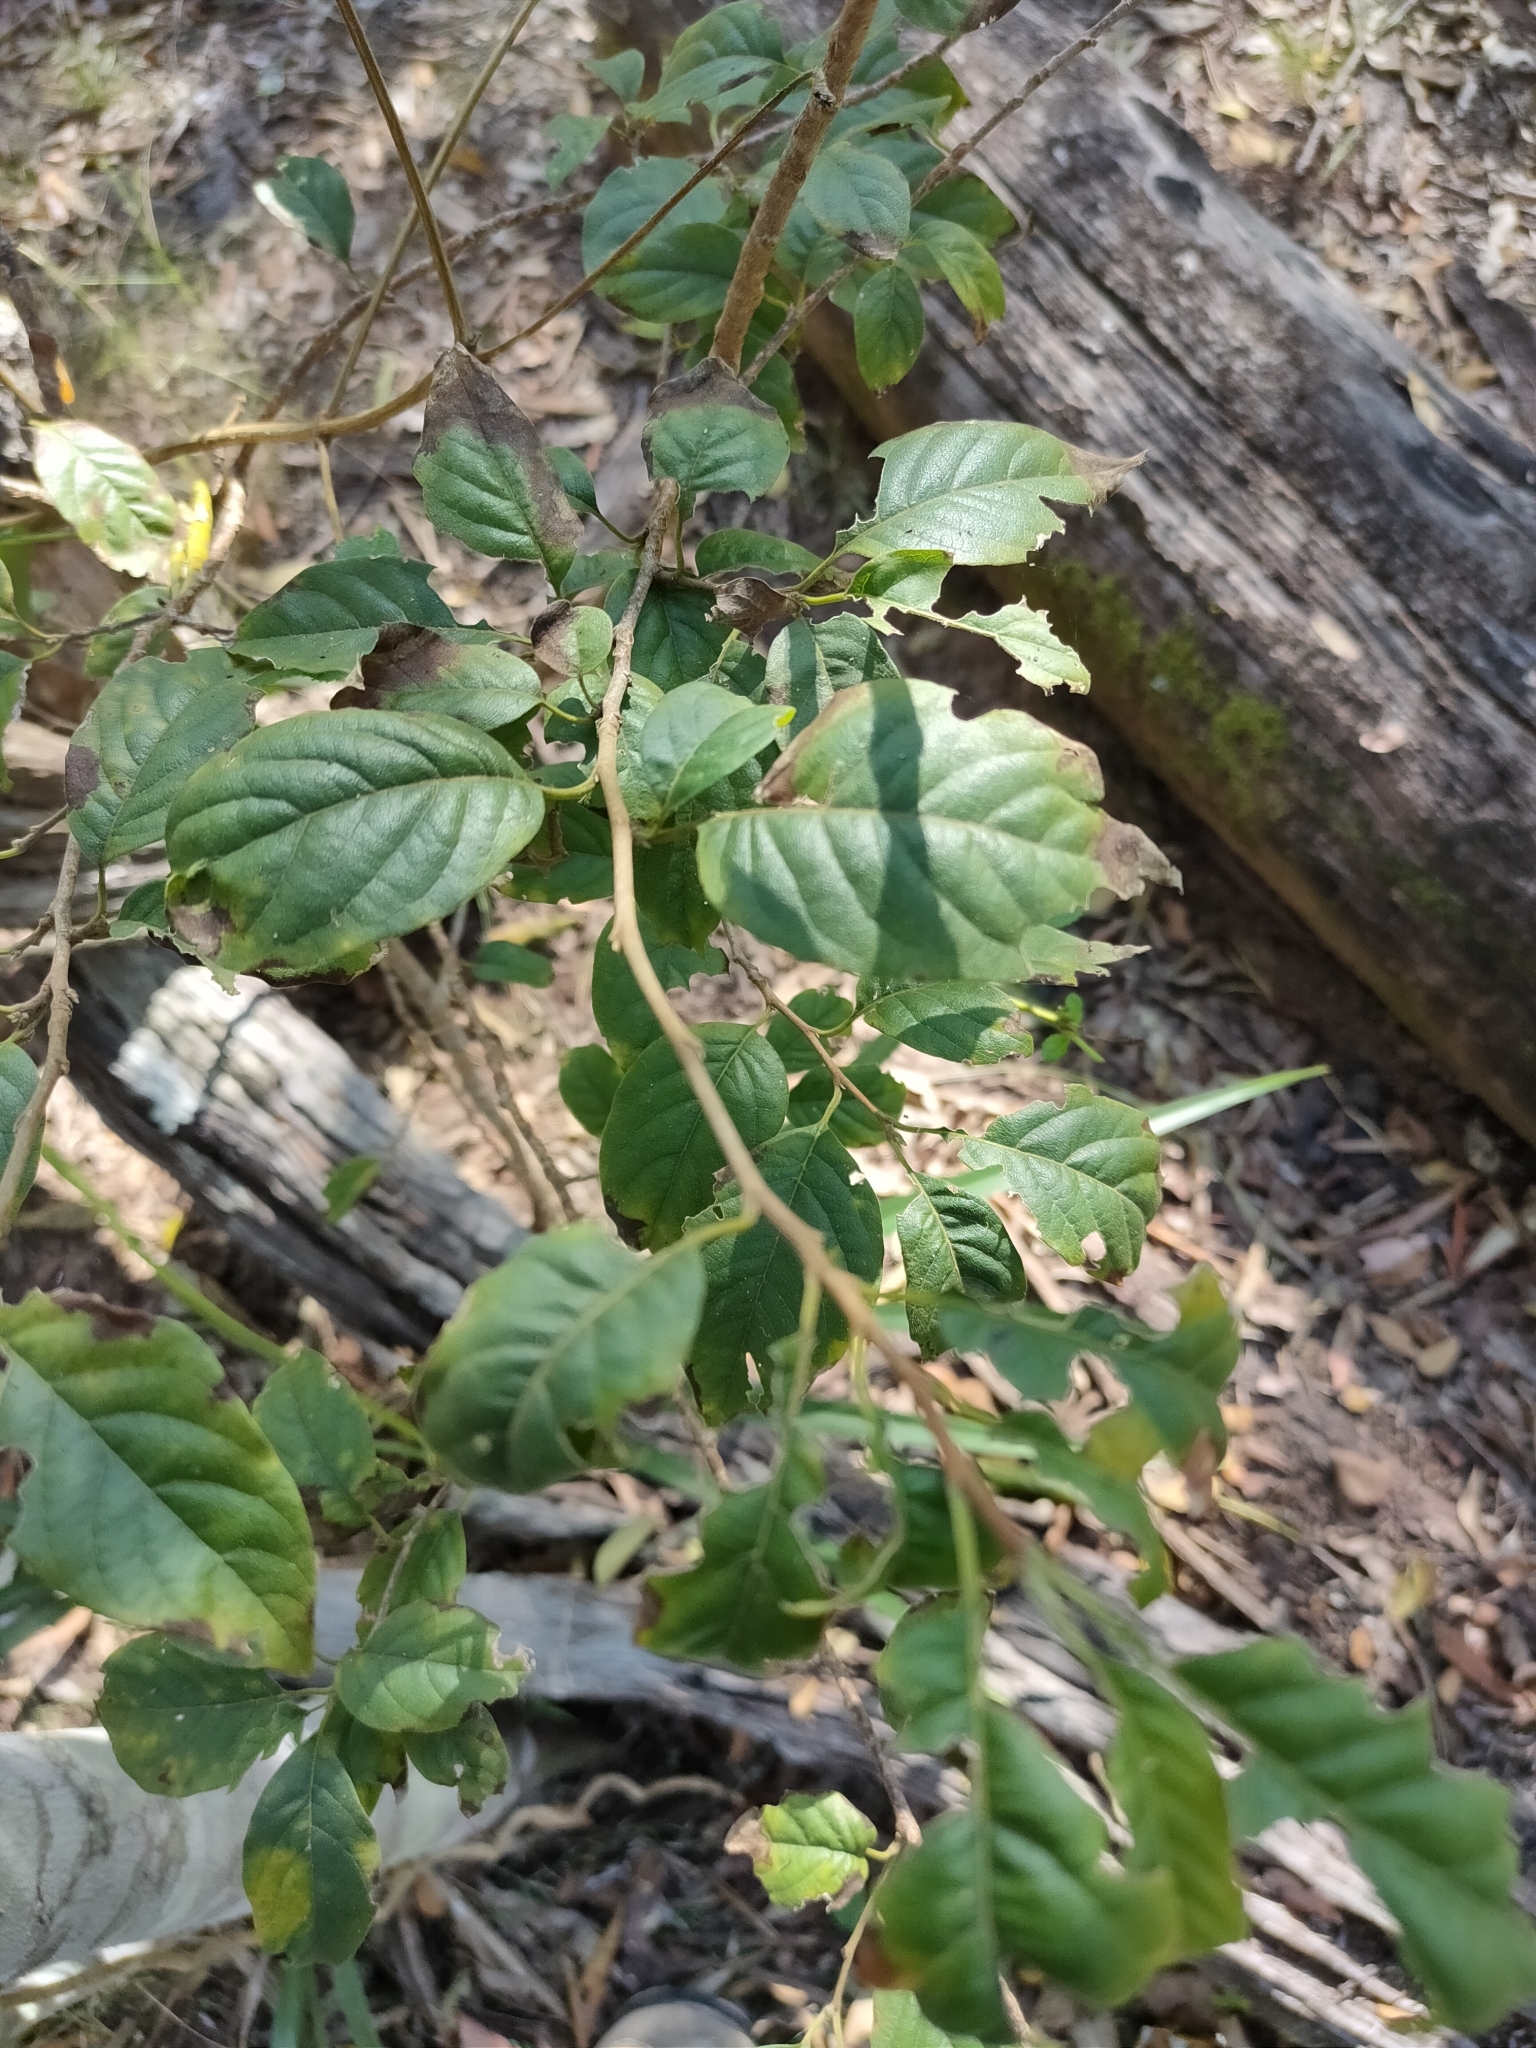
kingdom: Plantae
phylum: Tracheophyta
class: Magnoliopsida
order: Sapindales
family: Meliaceae
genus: Turraea
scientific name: Turraea pubescens
